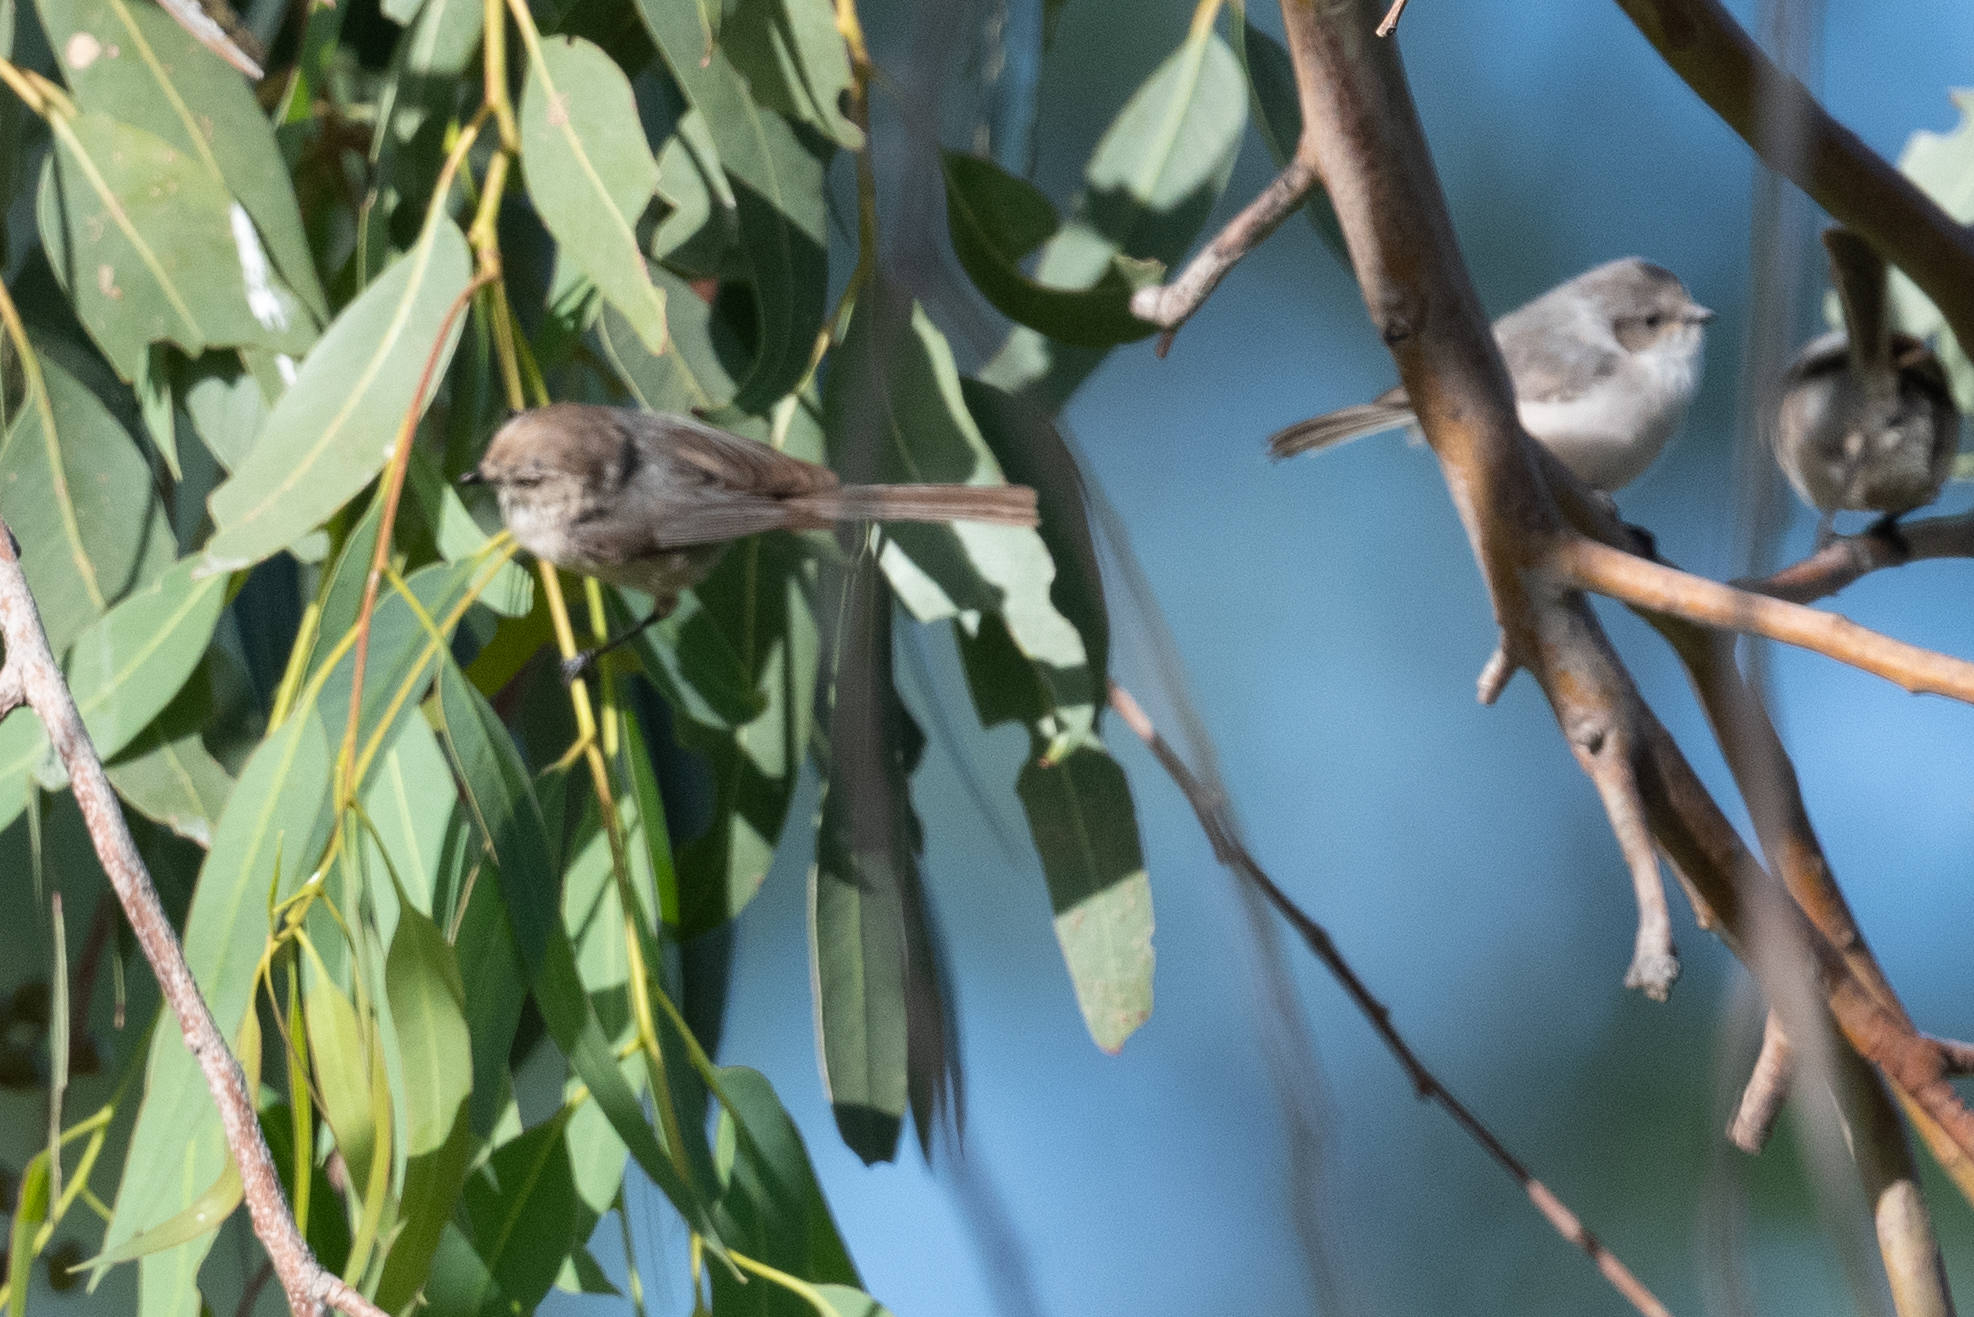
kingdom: Animalia
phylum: Chordata
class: Aves
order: Passeriformes
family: Aegithalidae
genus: Psaltriparus
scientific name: Psaltriparus minimus
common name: American bushtit
